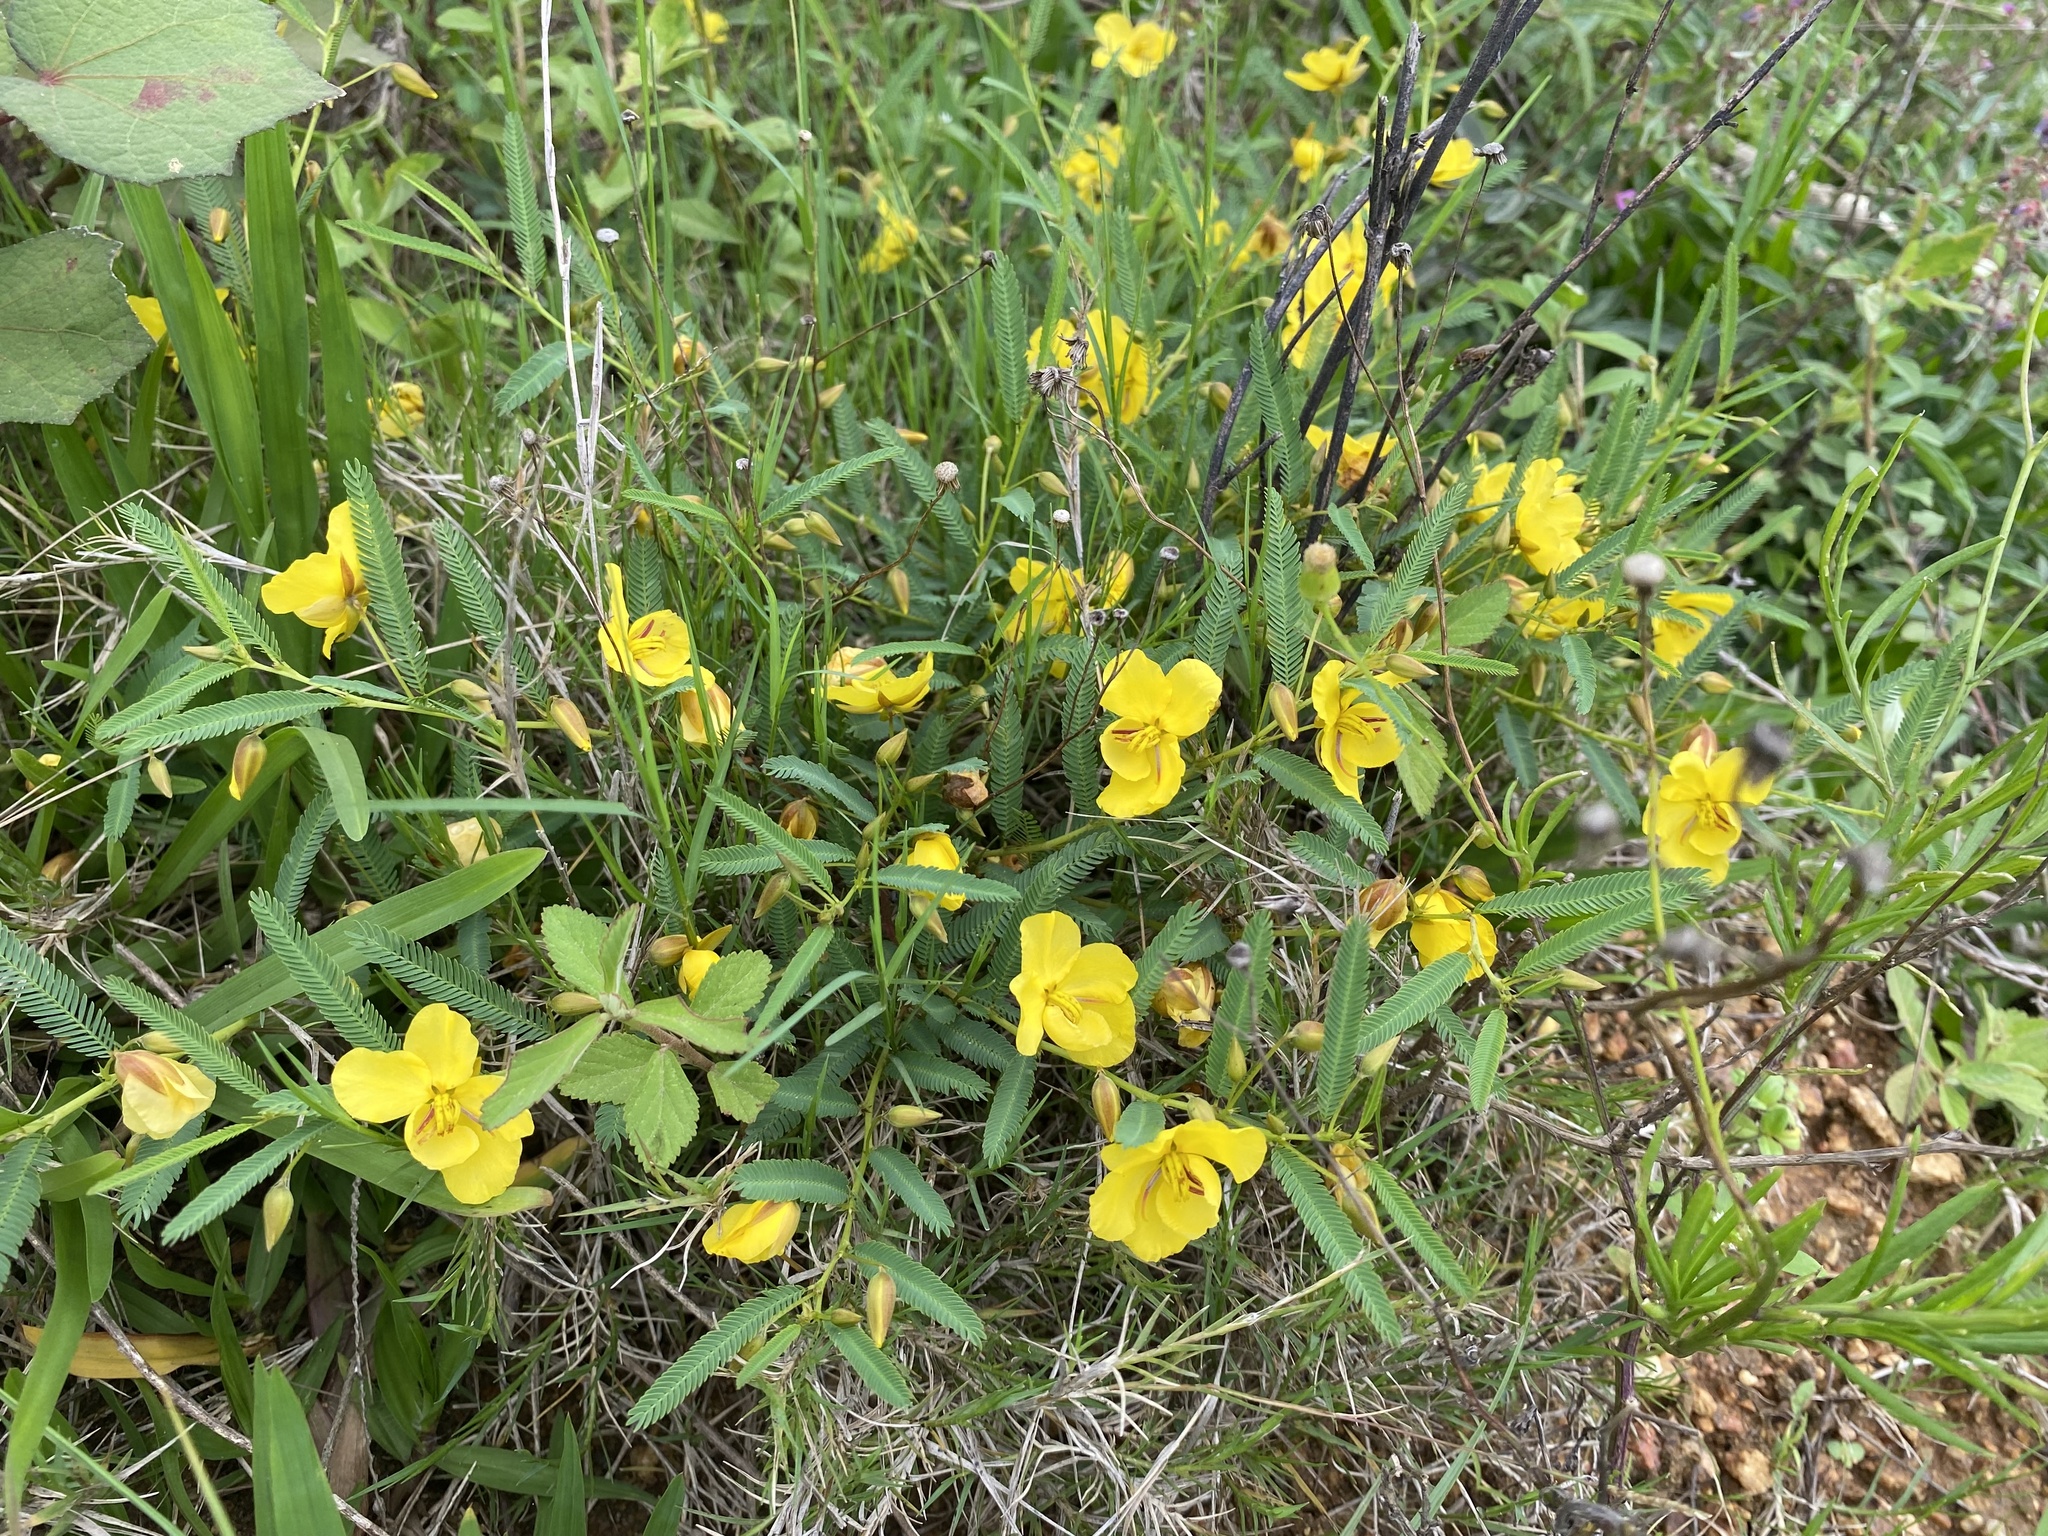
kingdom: Plantae
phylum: Tracheophyta
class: Magnoliopsida
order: Fabales
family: Fabaceae
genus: Chamaecrista
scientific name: Chamaecrista comosa
